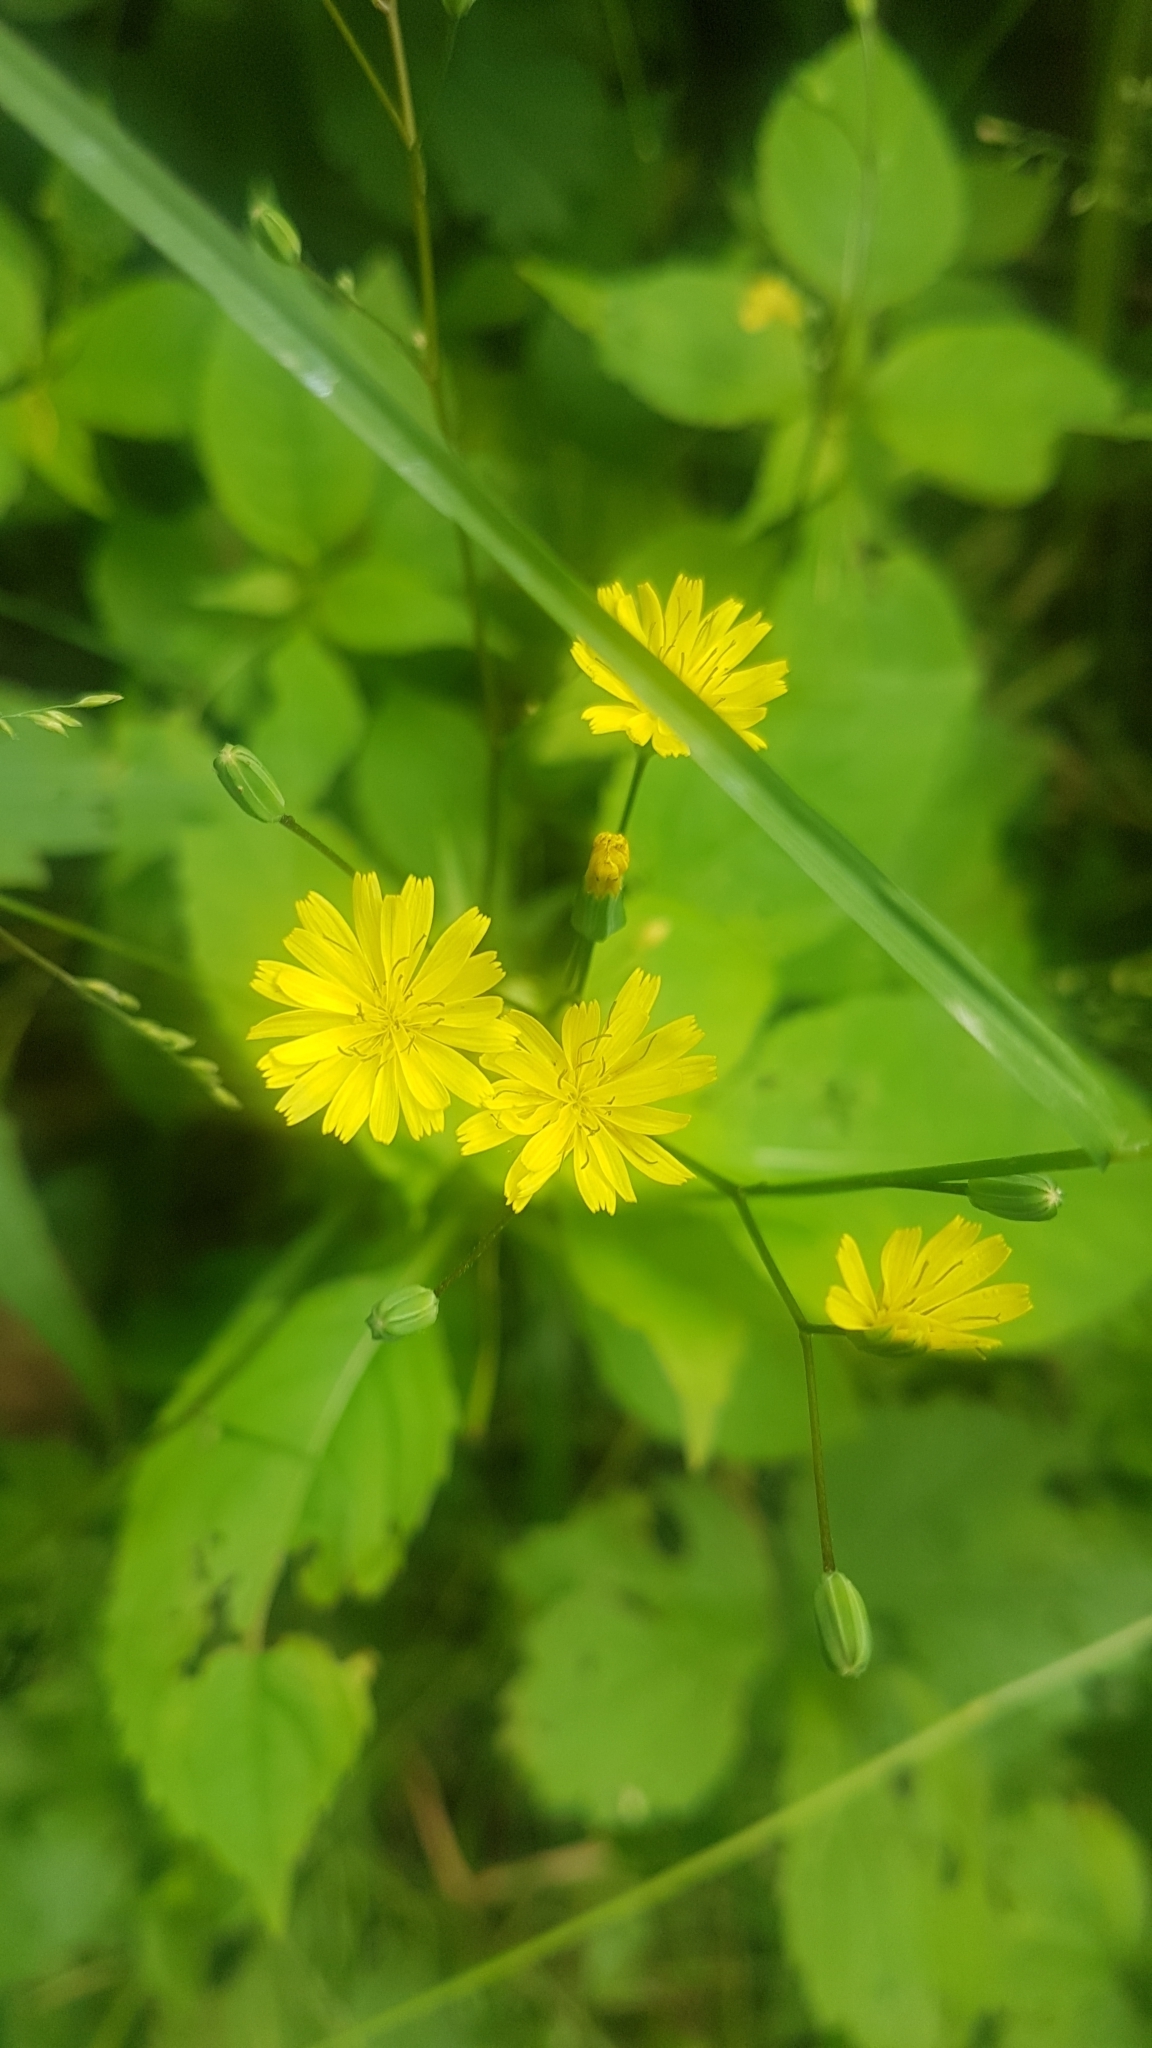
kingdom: Plantae
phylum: Tracheophyta
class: Magnoliopsida
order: Asterales
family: Asteraceae
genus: Lapsana
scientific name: Lapsana communis
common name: Nipplewort
